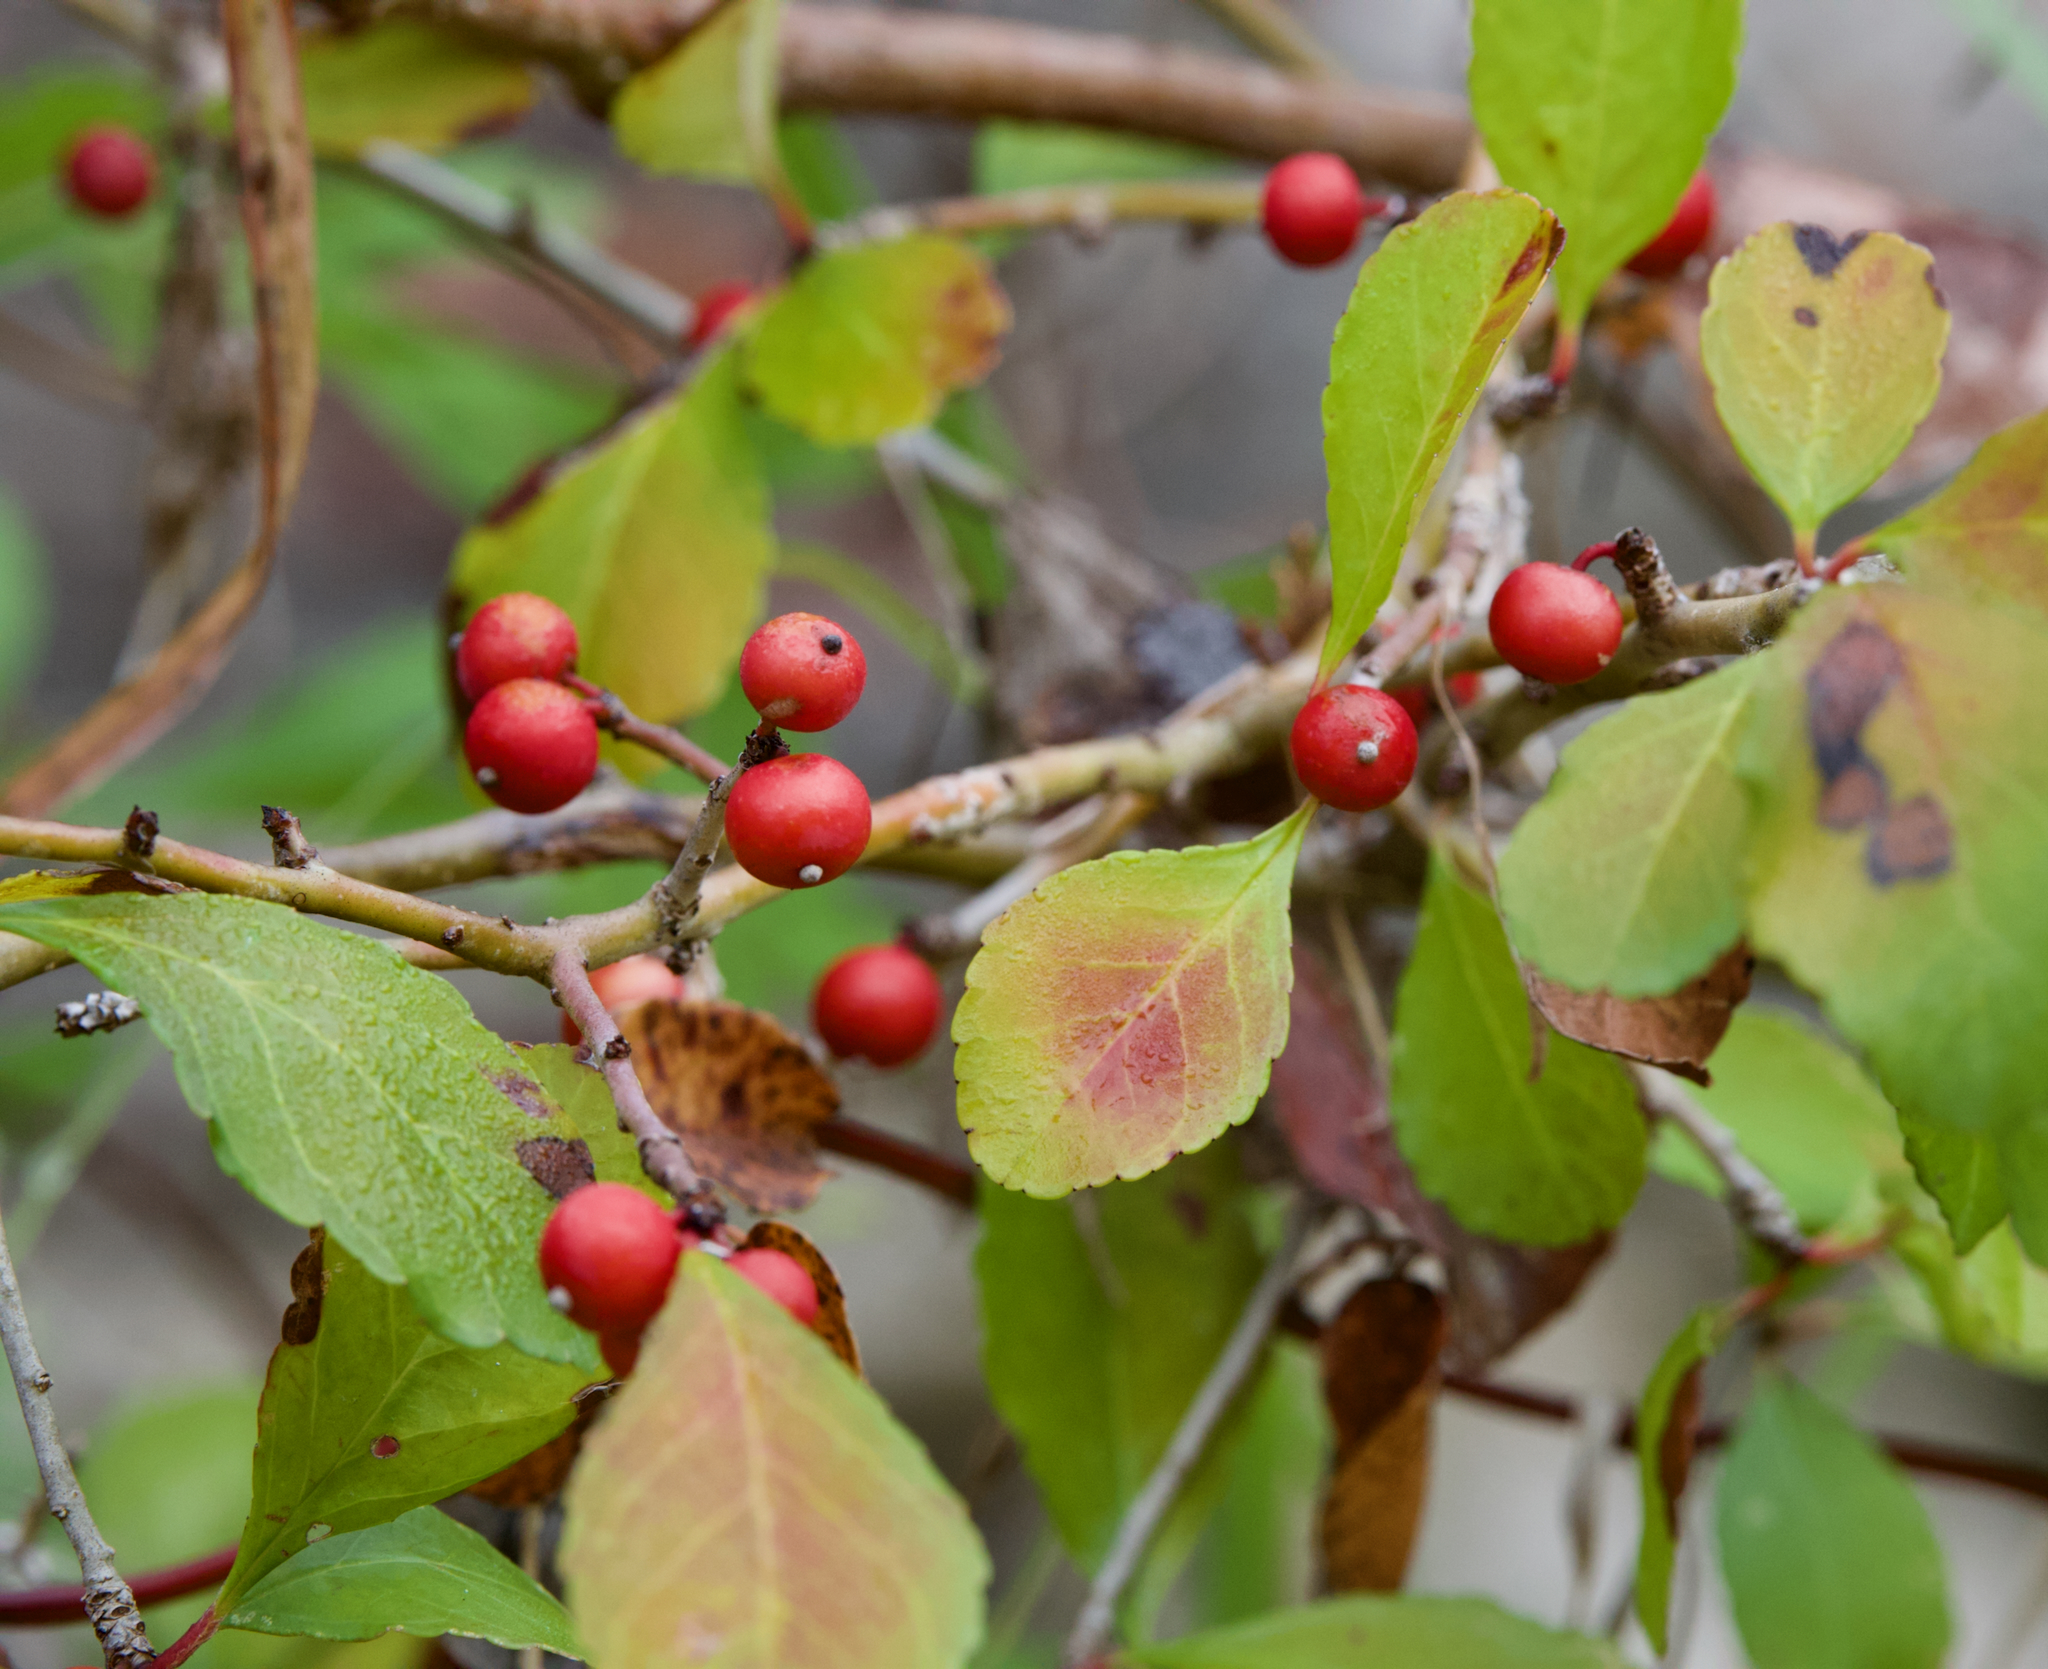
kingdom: Plantae
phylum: Tracheophyta
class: Magnoliopsida
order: Aquifoliales
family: Aquifoliaceae
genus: Ilex
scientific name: Ilex decidua
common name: Possum-haw
